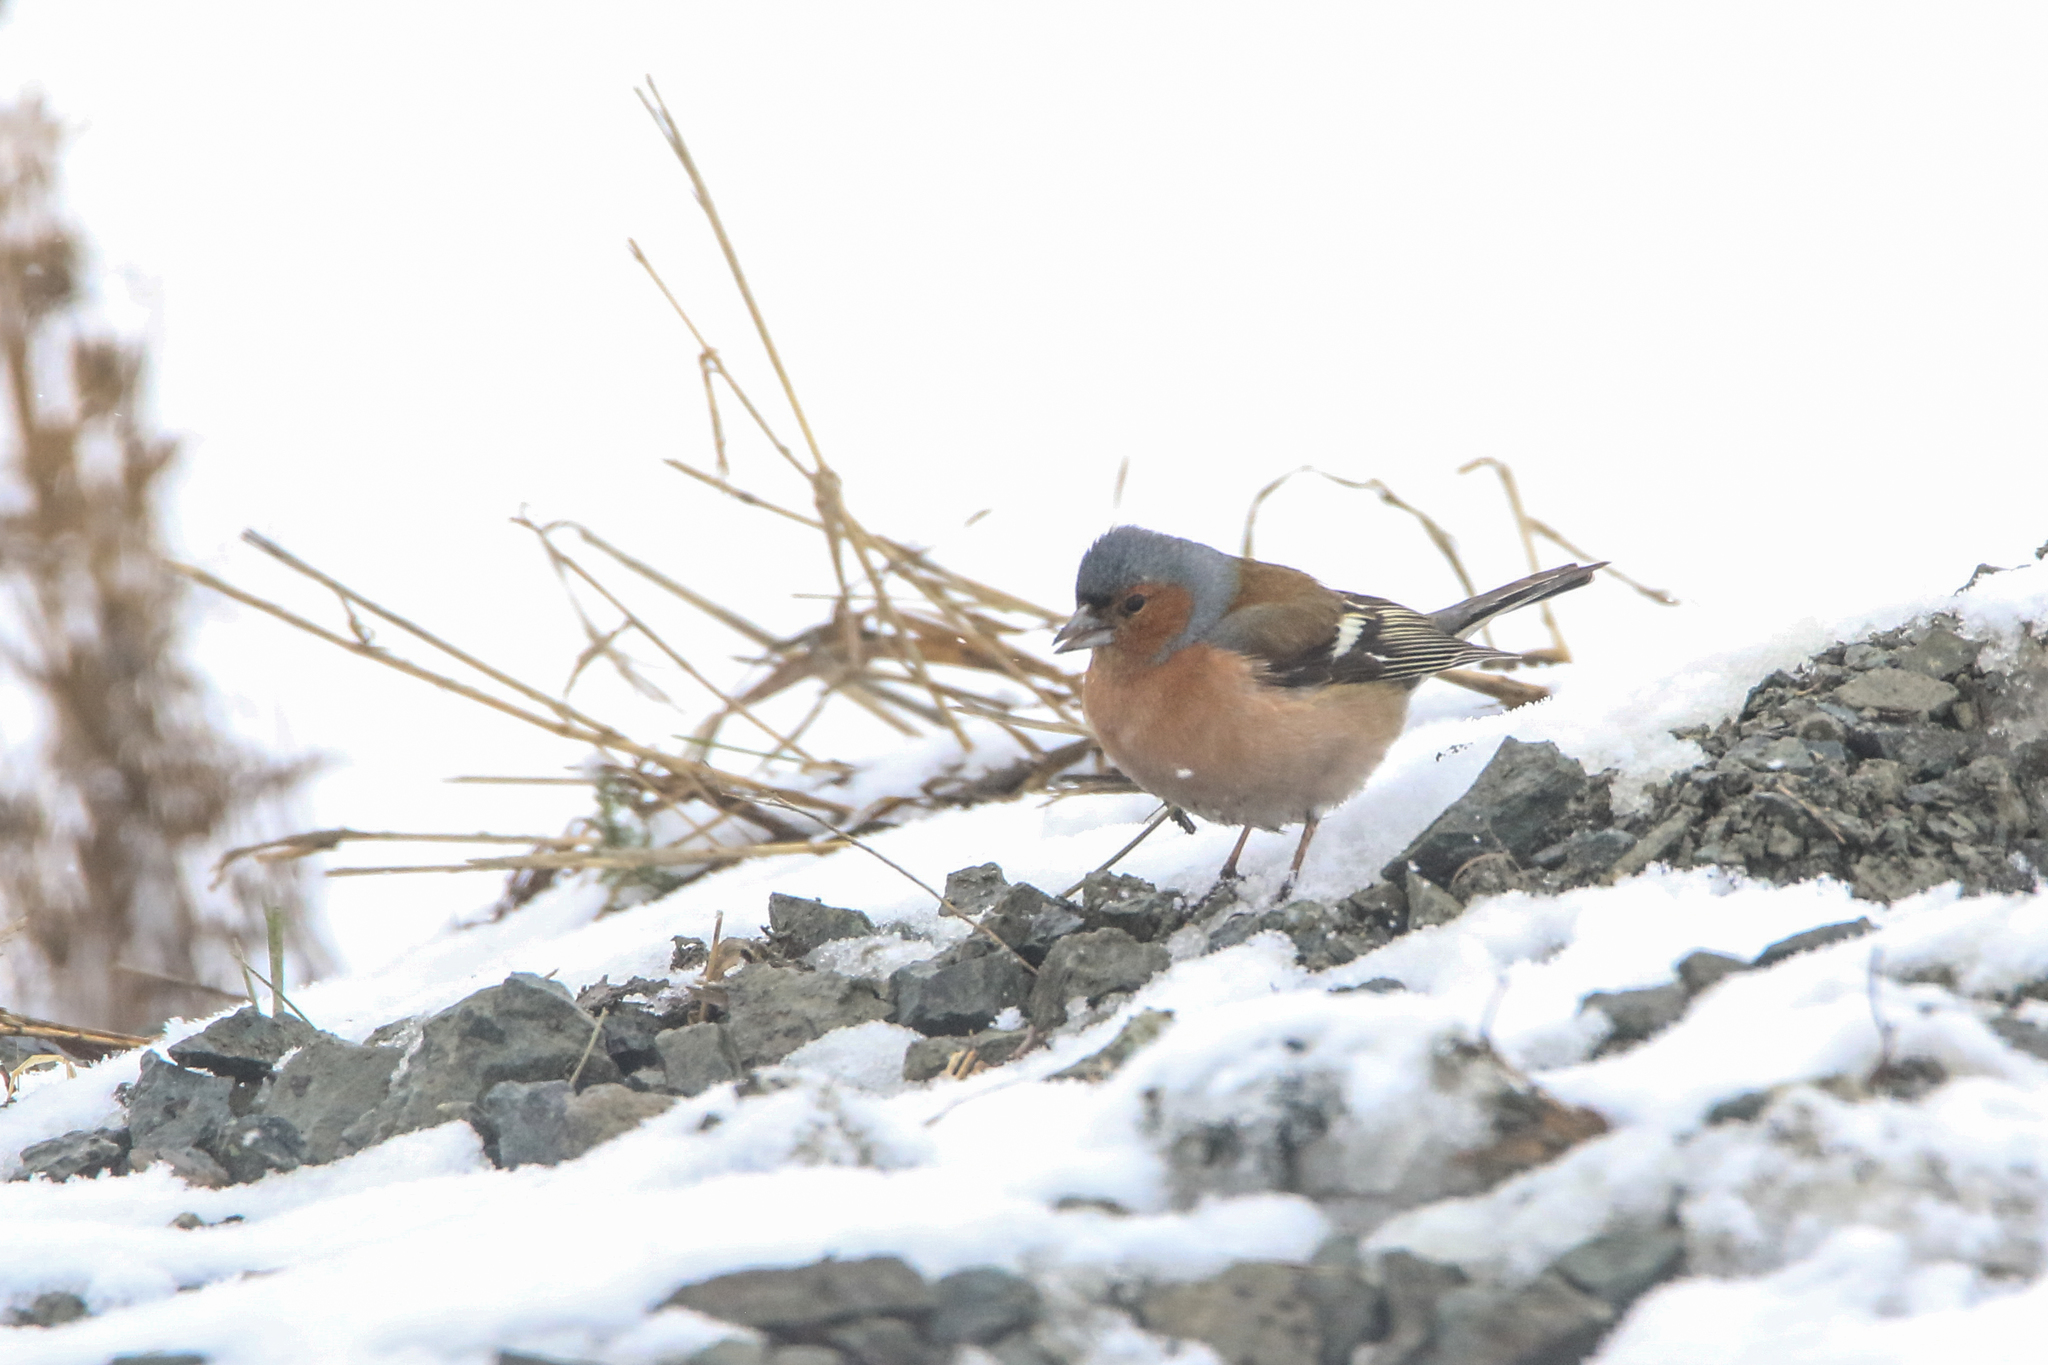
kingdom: Animalia
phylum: Chordata
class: Aves
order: Passeriformes
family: Fringillidae
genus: Fringilla
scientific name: Fringilla coelebs
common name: Common chaffinch
